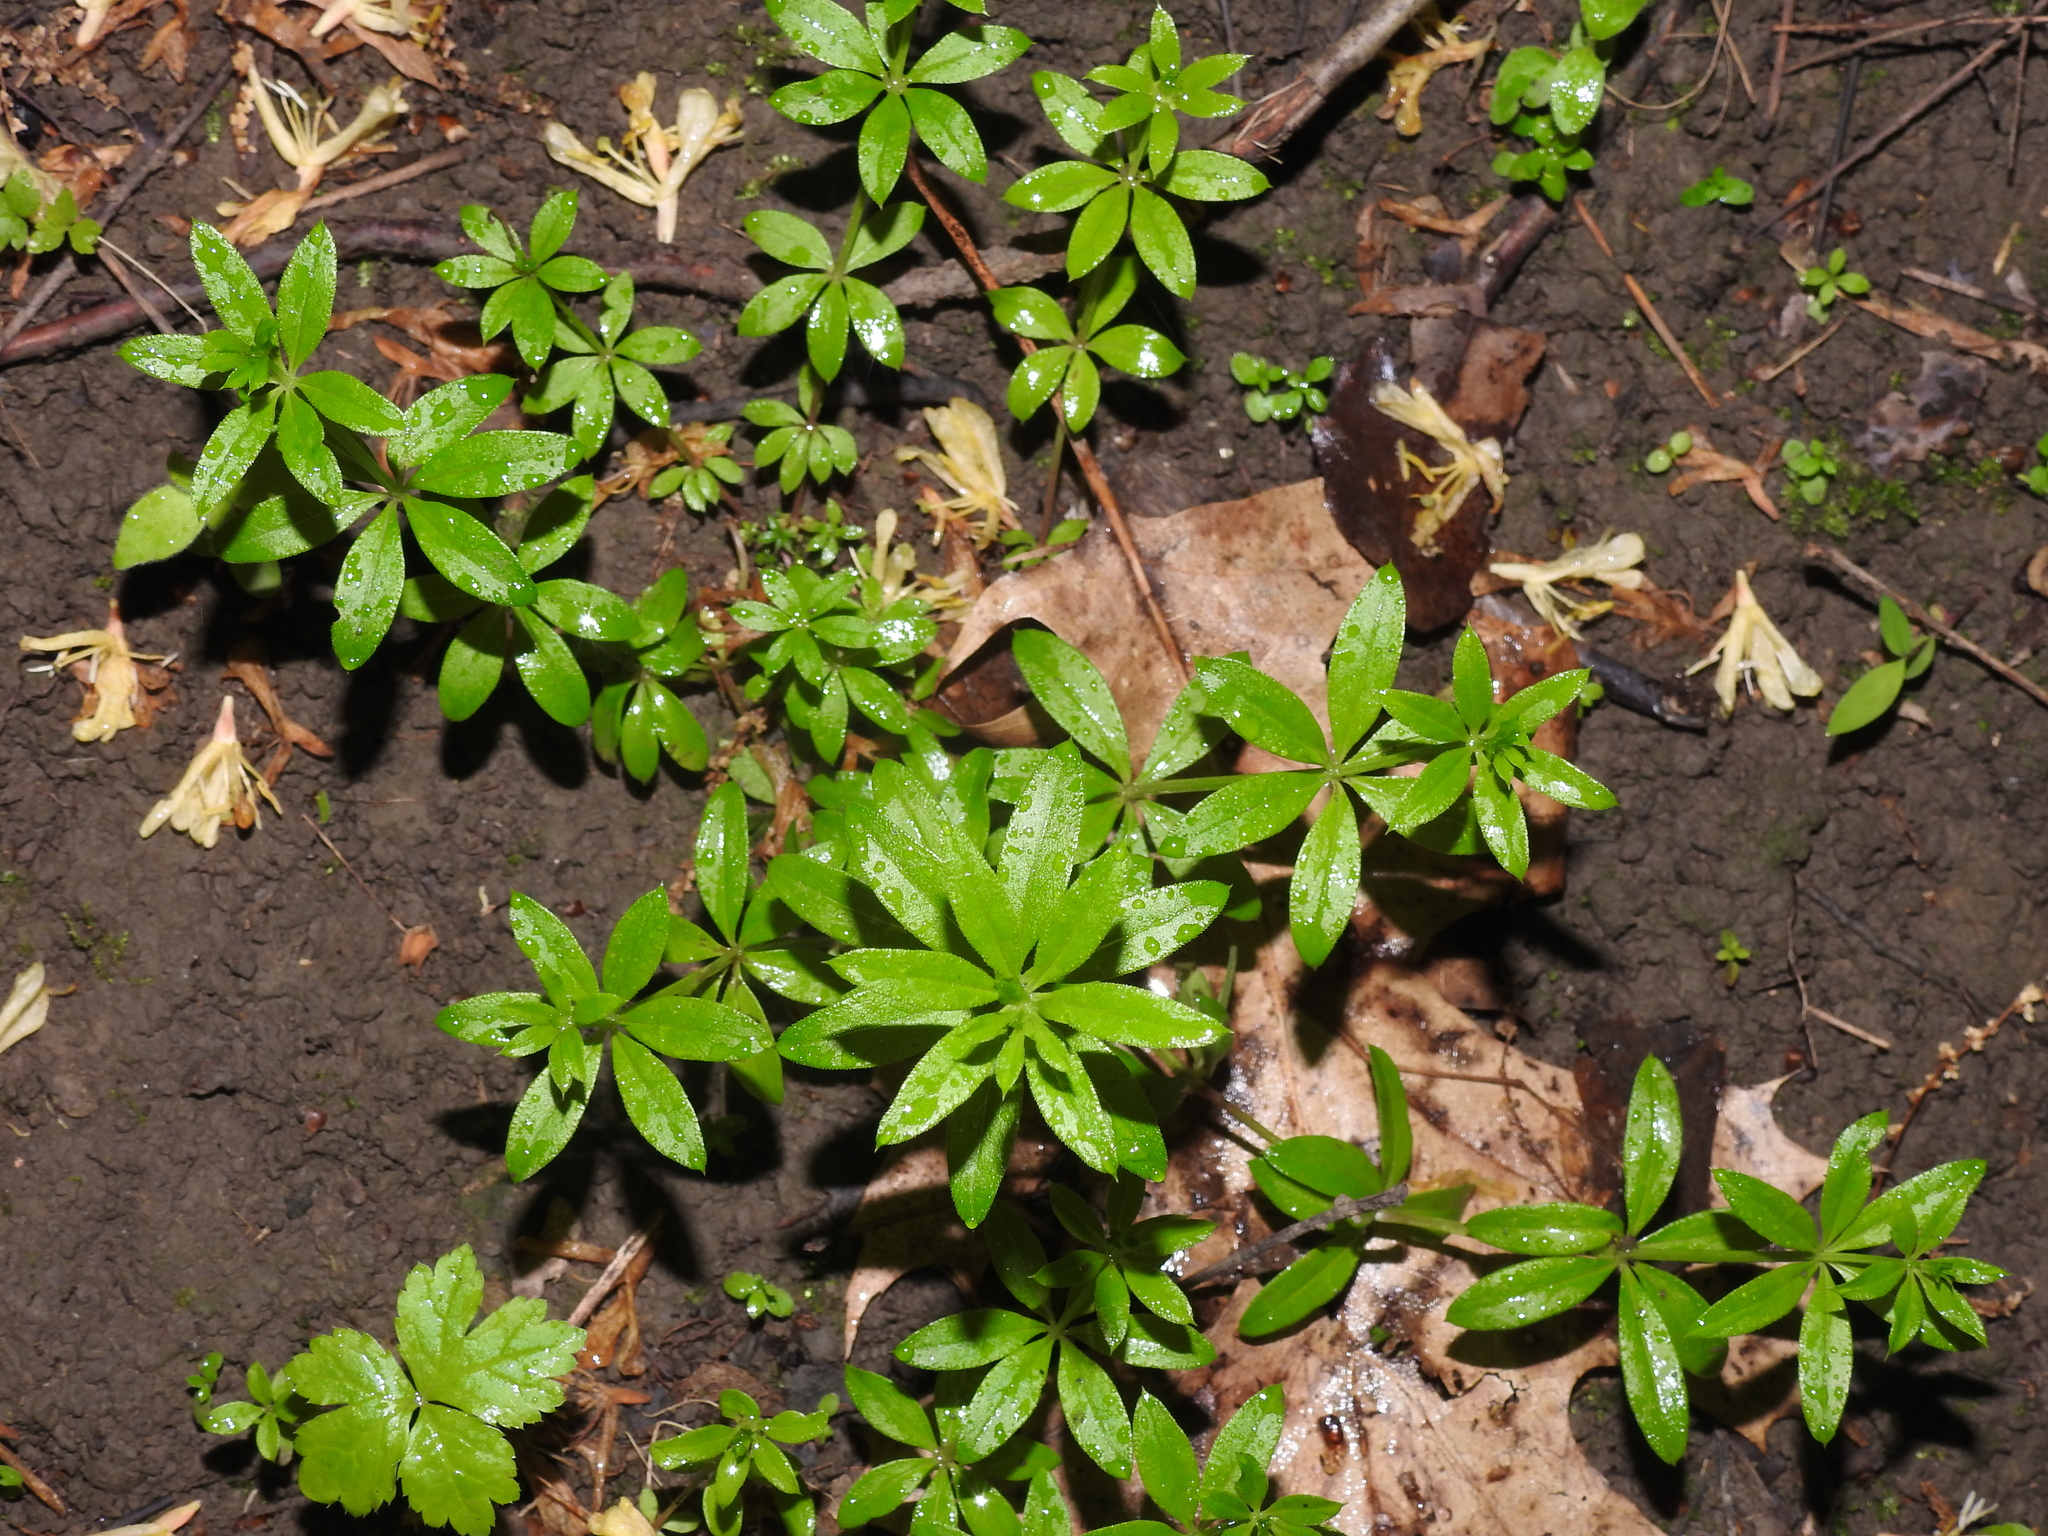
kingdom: Plantae
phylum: Tracheophyta
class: Magnoliopsida
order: Gentianales
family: Rubiaceae
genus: Galium
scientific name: Galium triflorum
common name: Fragrant bedstraw
